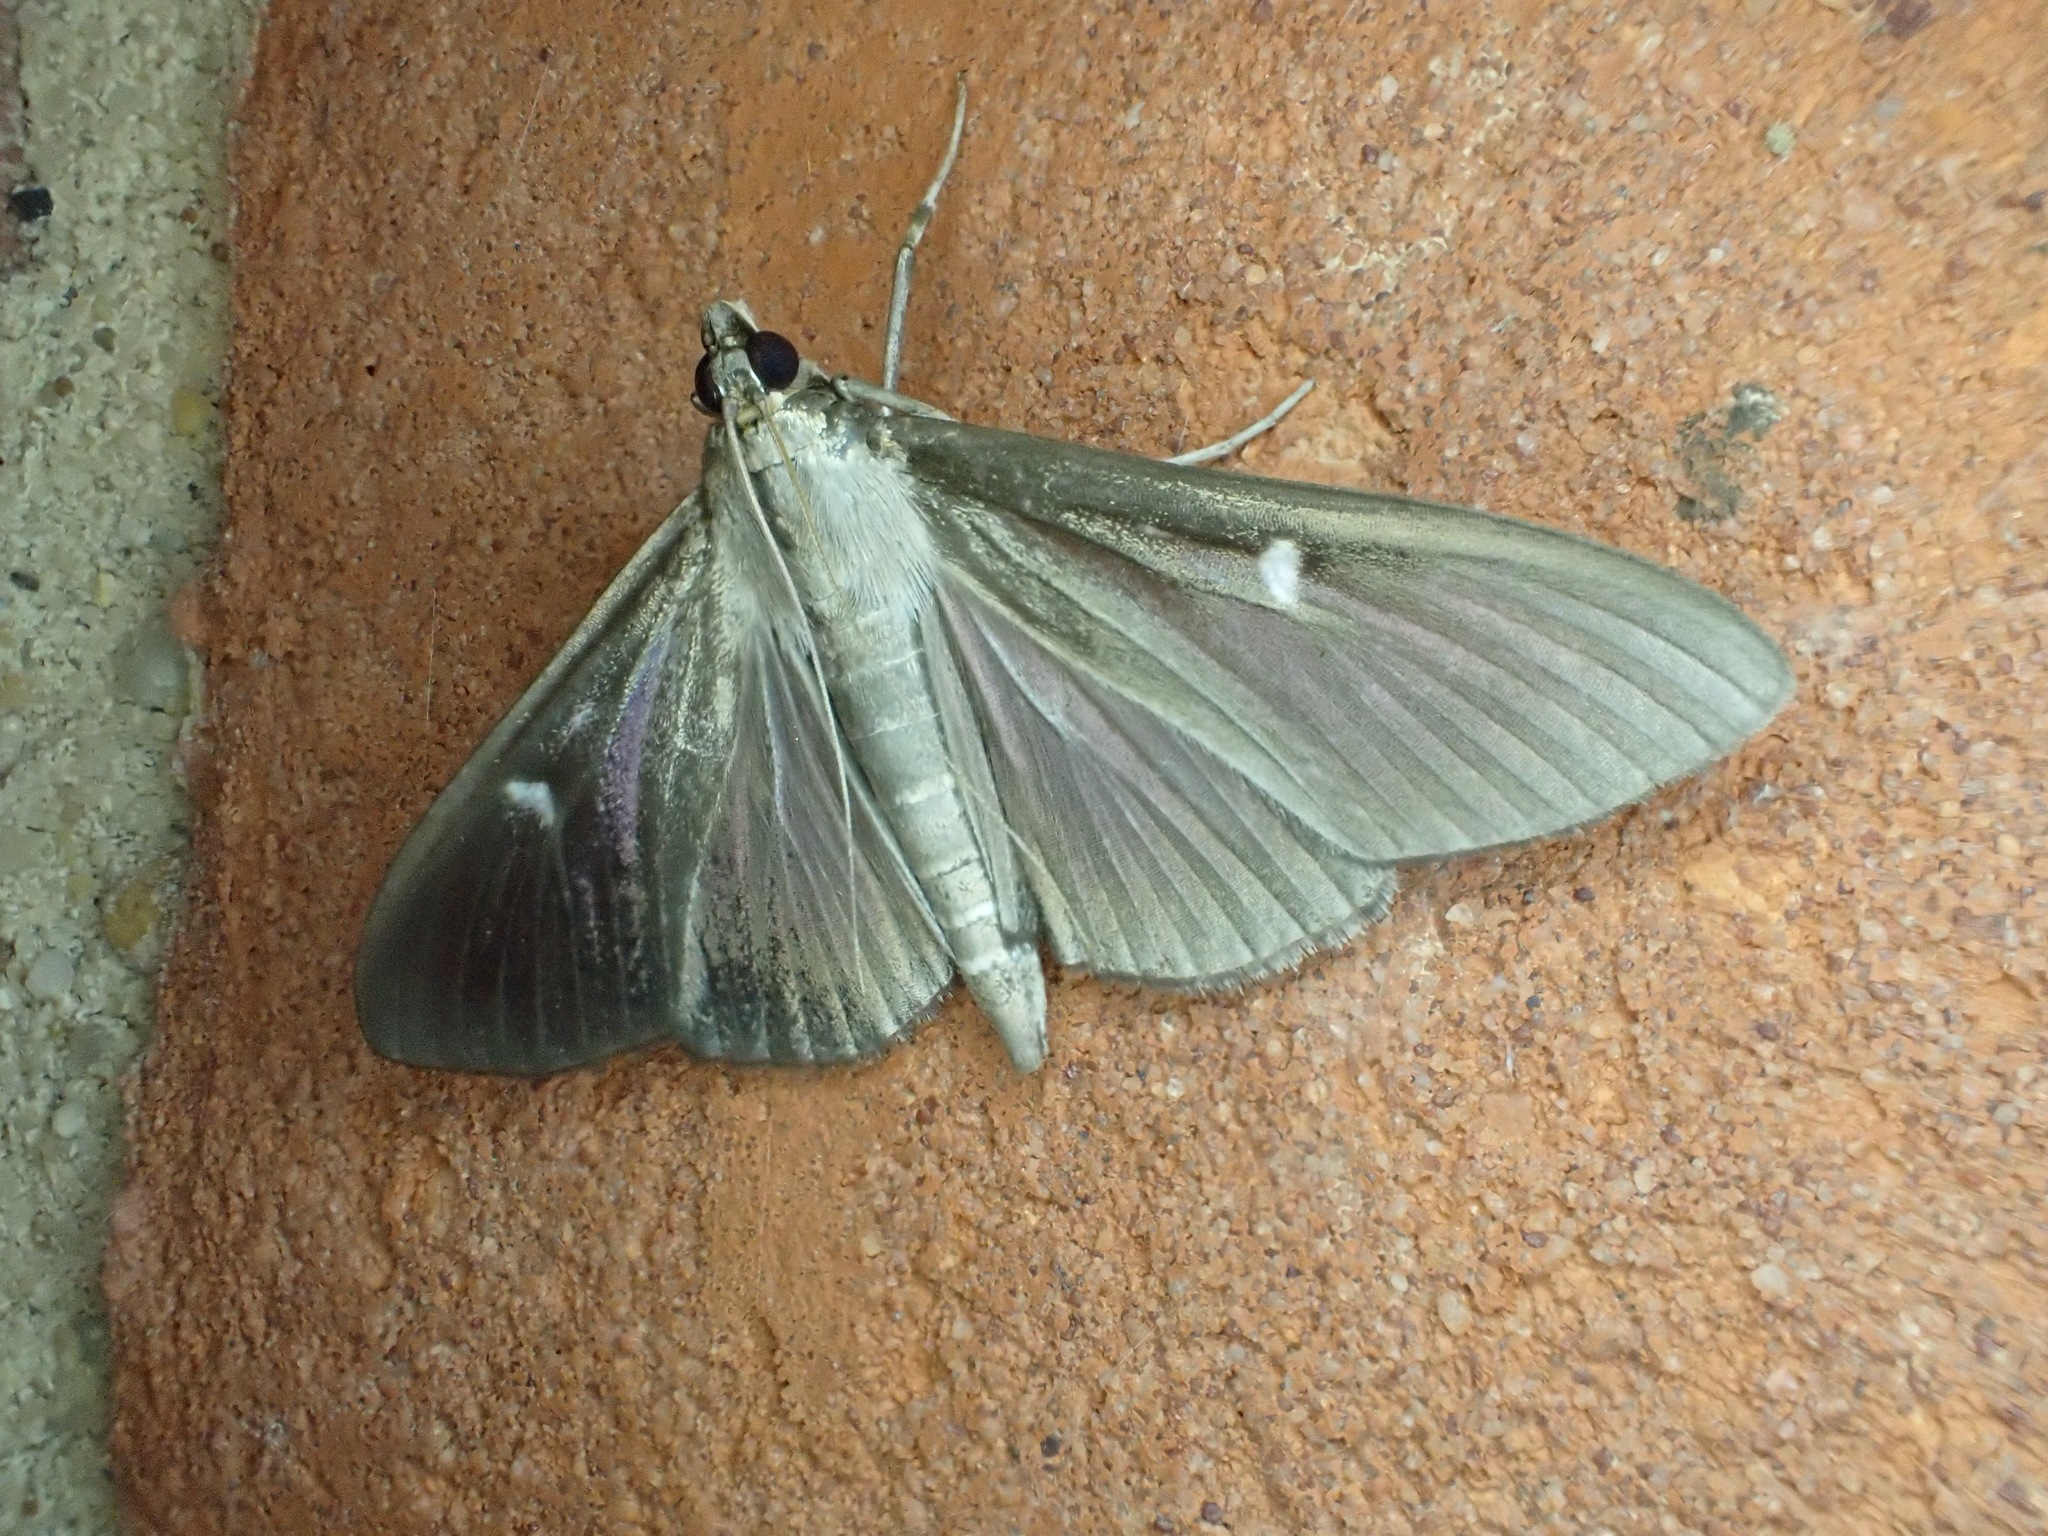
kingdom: Animalia
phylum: Arthropoda
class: Insecta
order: Lepidoptera
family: Crambidae
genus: Cydalima
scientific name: Cydalima perspectalis
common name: Box tree moth
